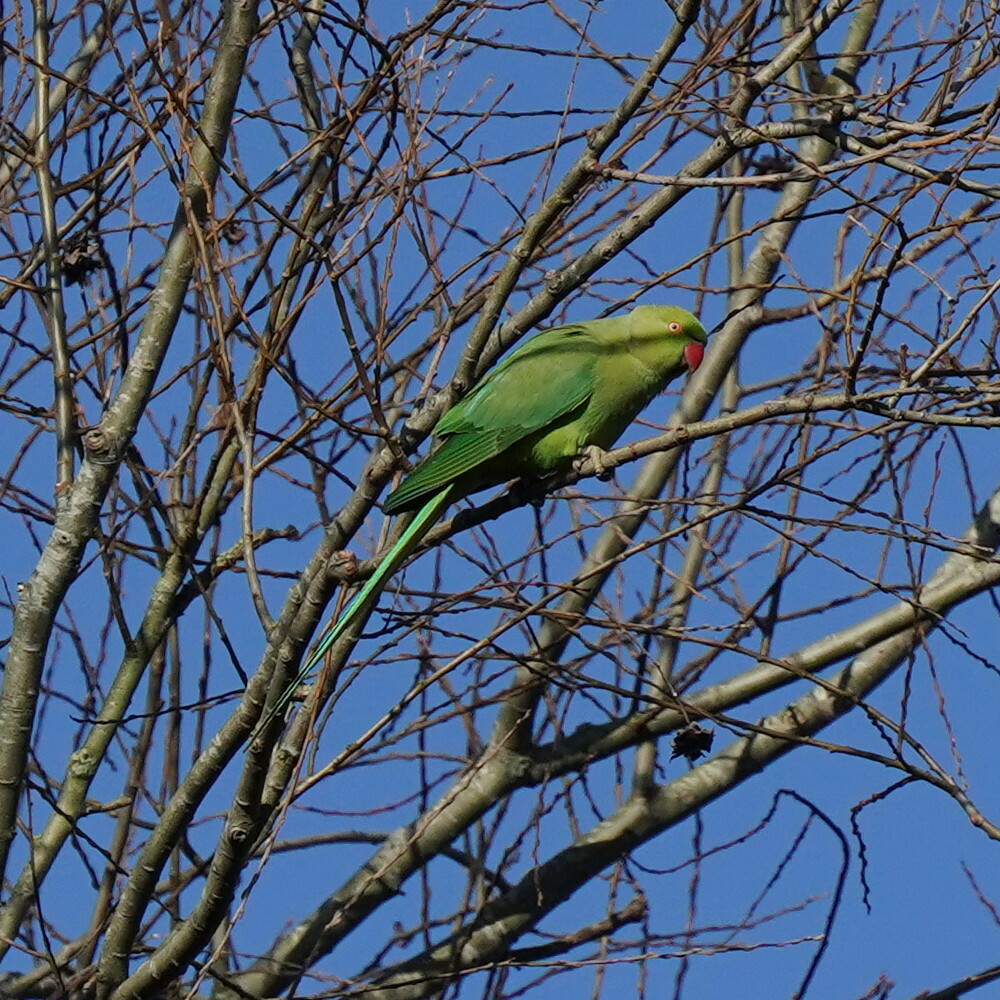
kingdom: Animalia
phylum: Chordata
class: Aves
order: Psittaciformes
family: Psittacidae
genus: Psittacula
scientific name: Psittacula krameri
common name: Rose-ringed parakeet
